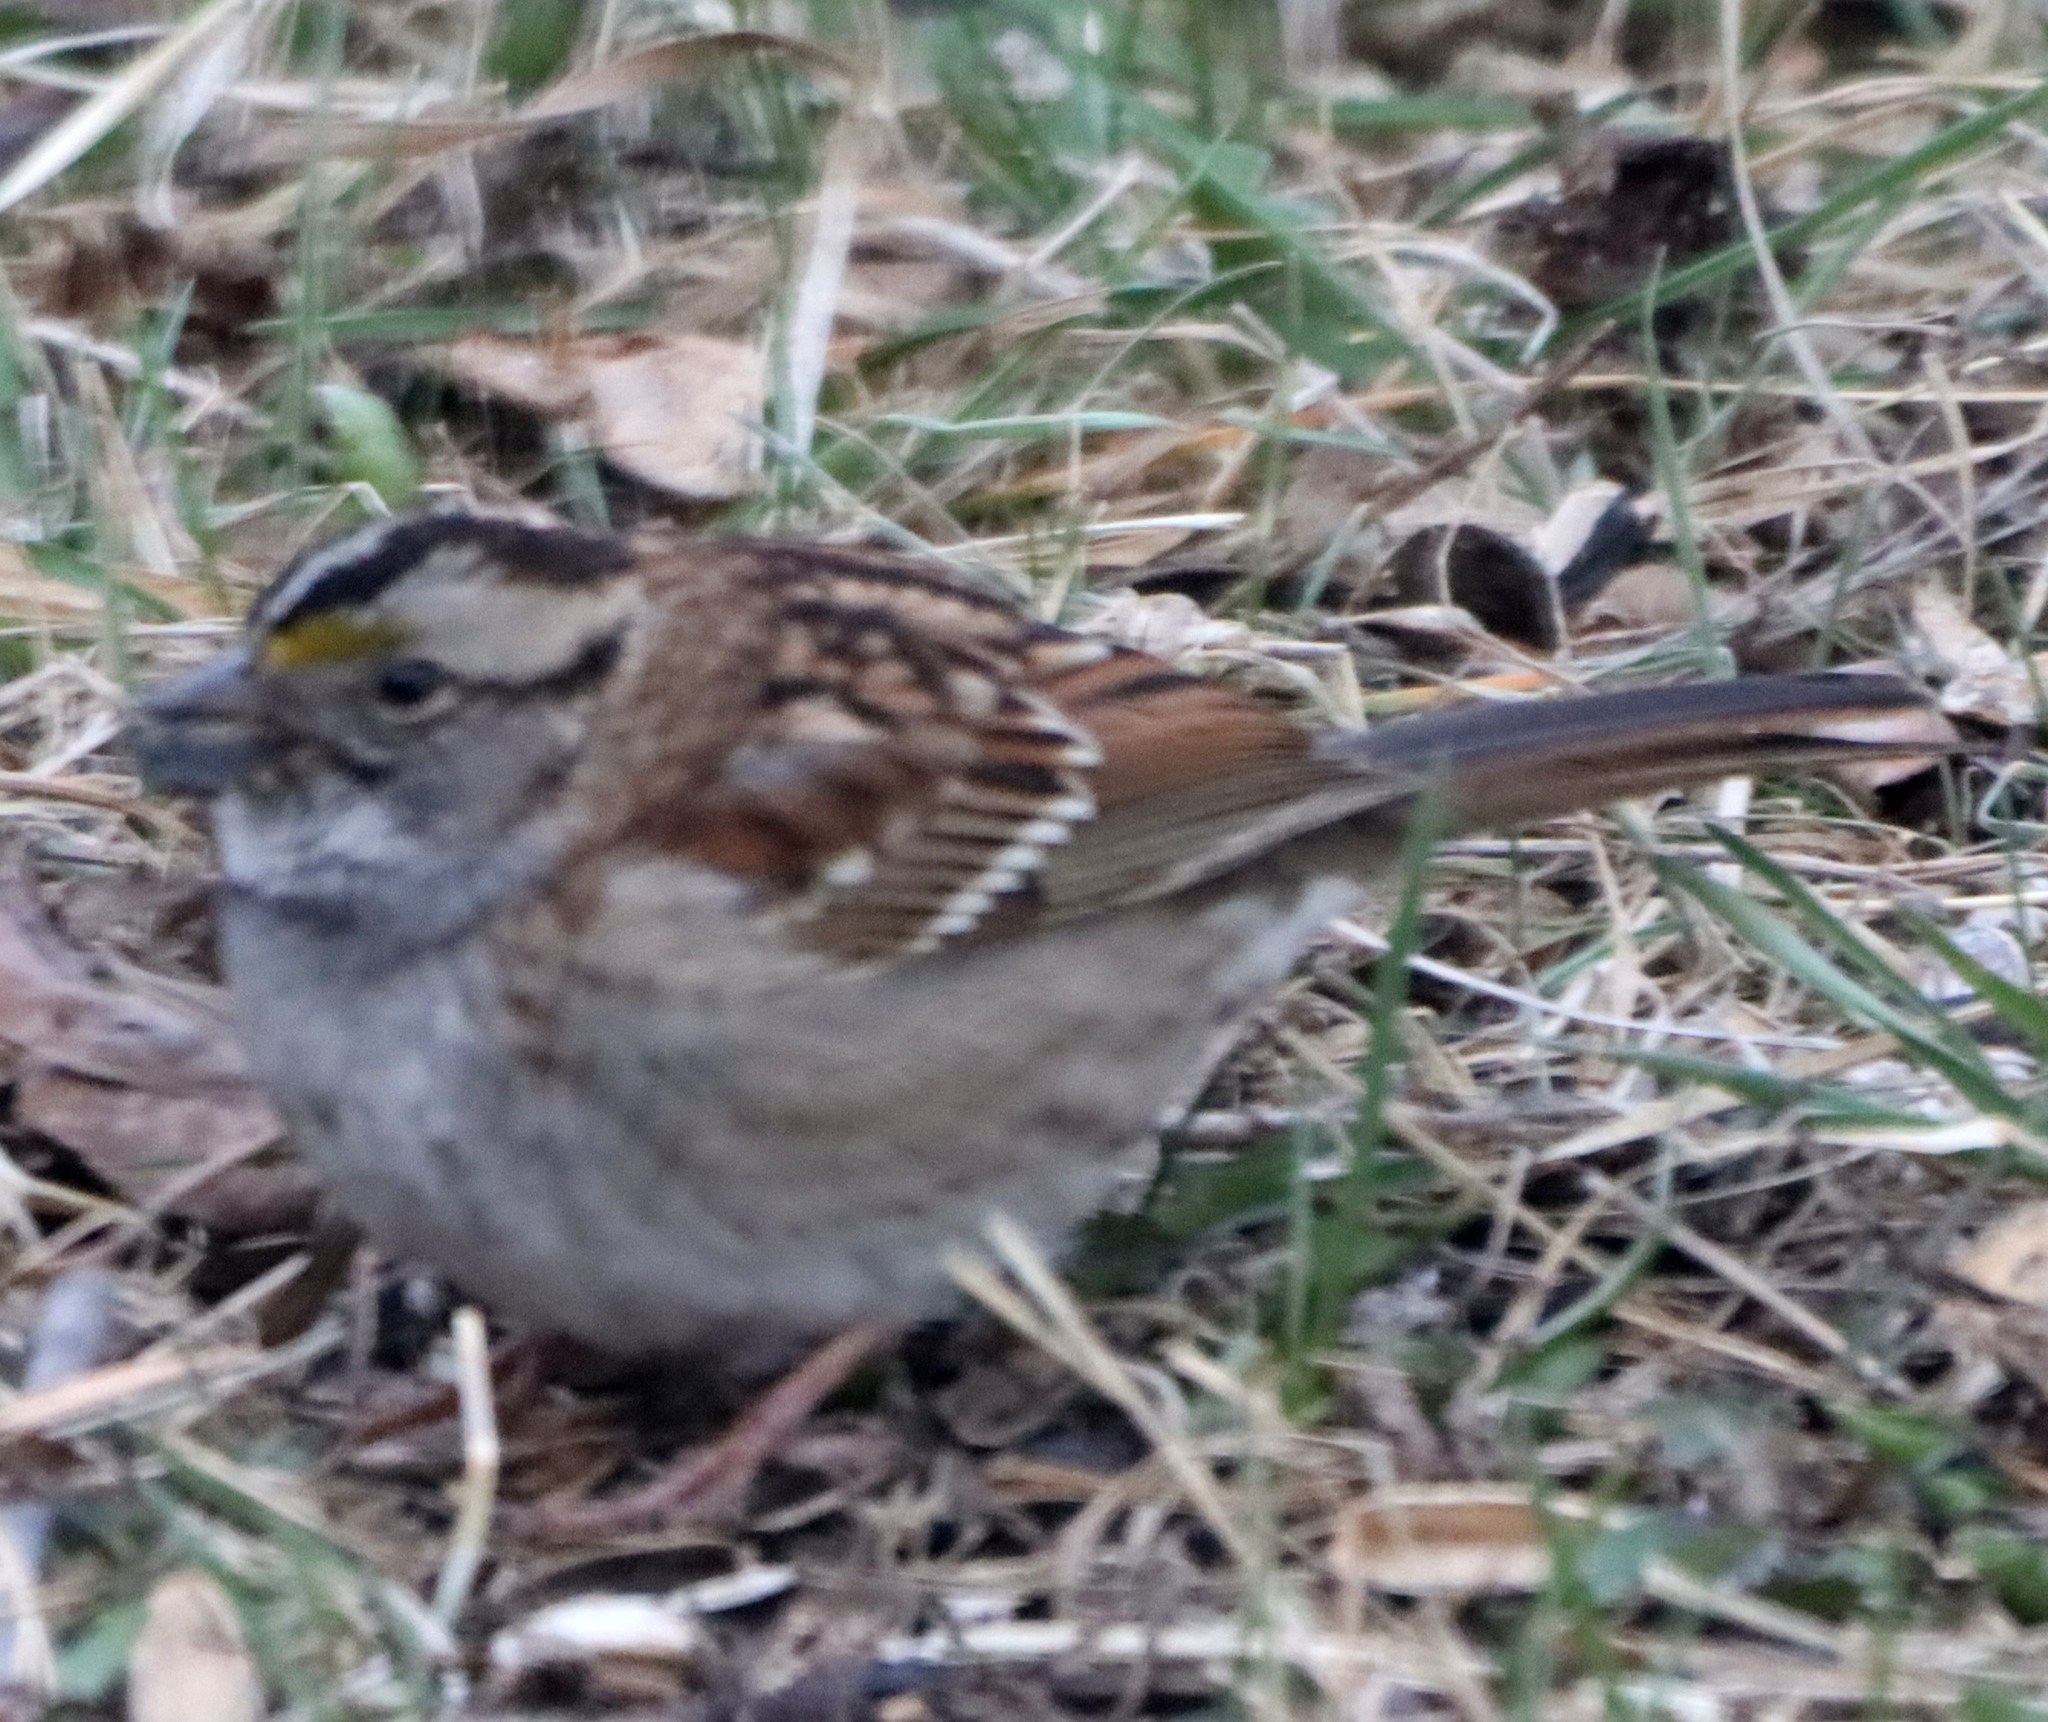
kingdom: Animalia
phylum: Chordata
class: Aves
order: Passeriformes
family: Passerellidae
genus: Zonotrichia
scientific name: Zonotrichia albicollis
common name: White-throated sparrow
